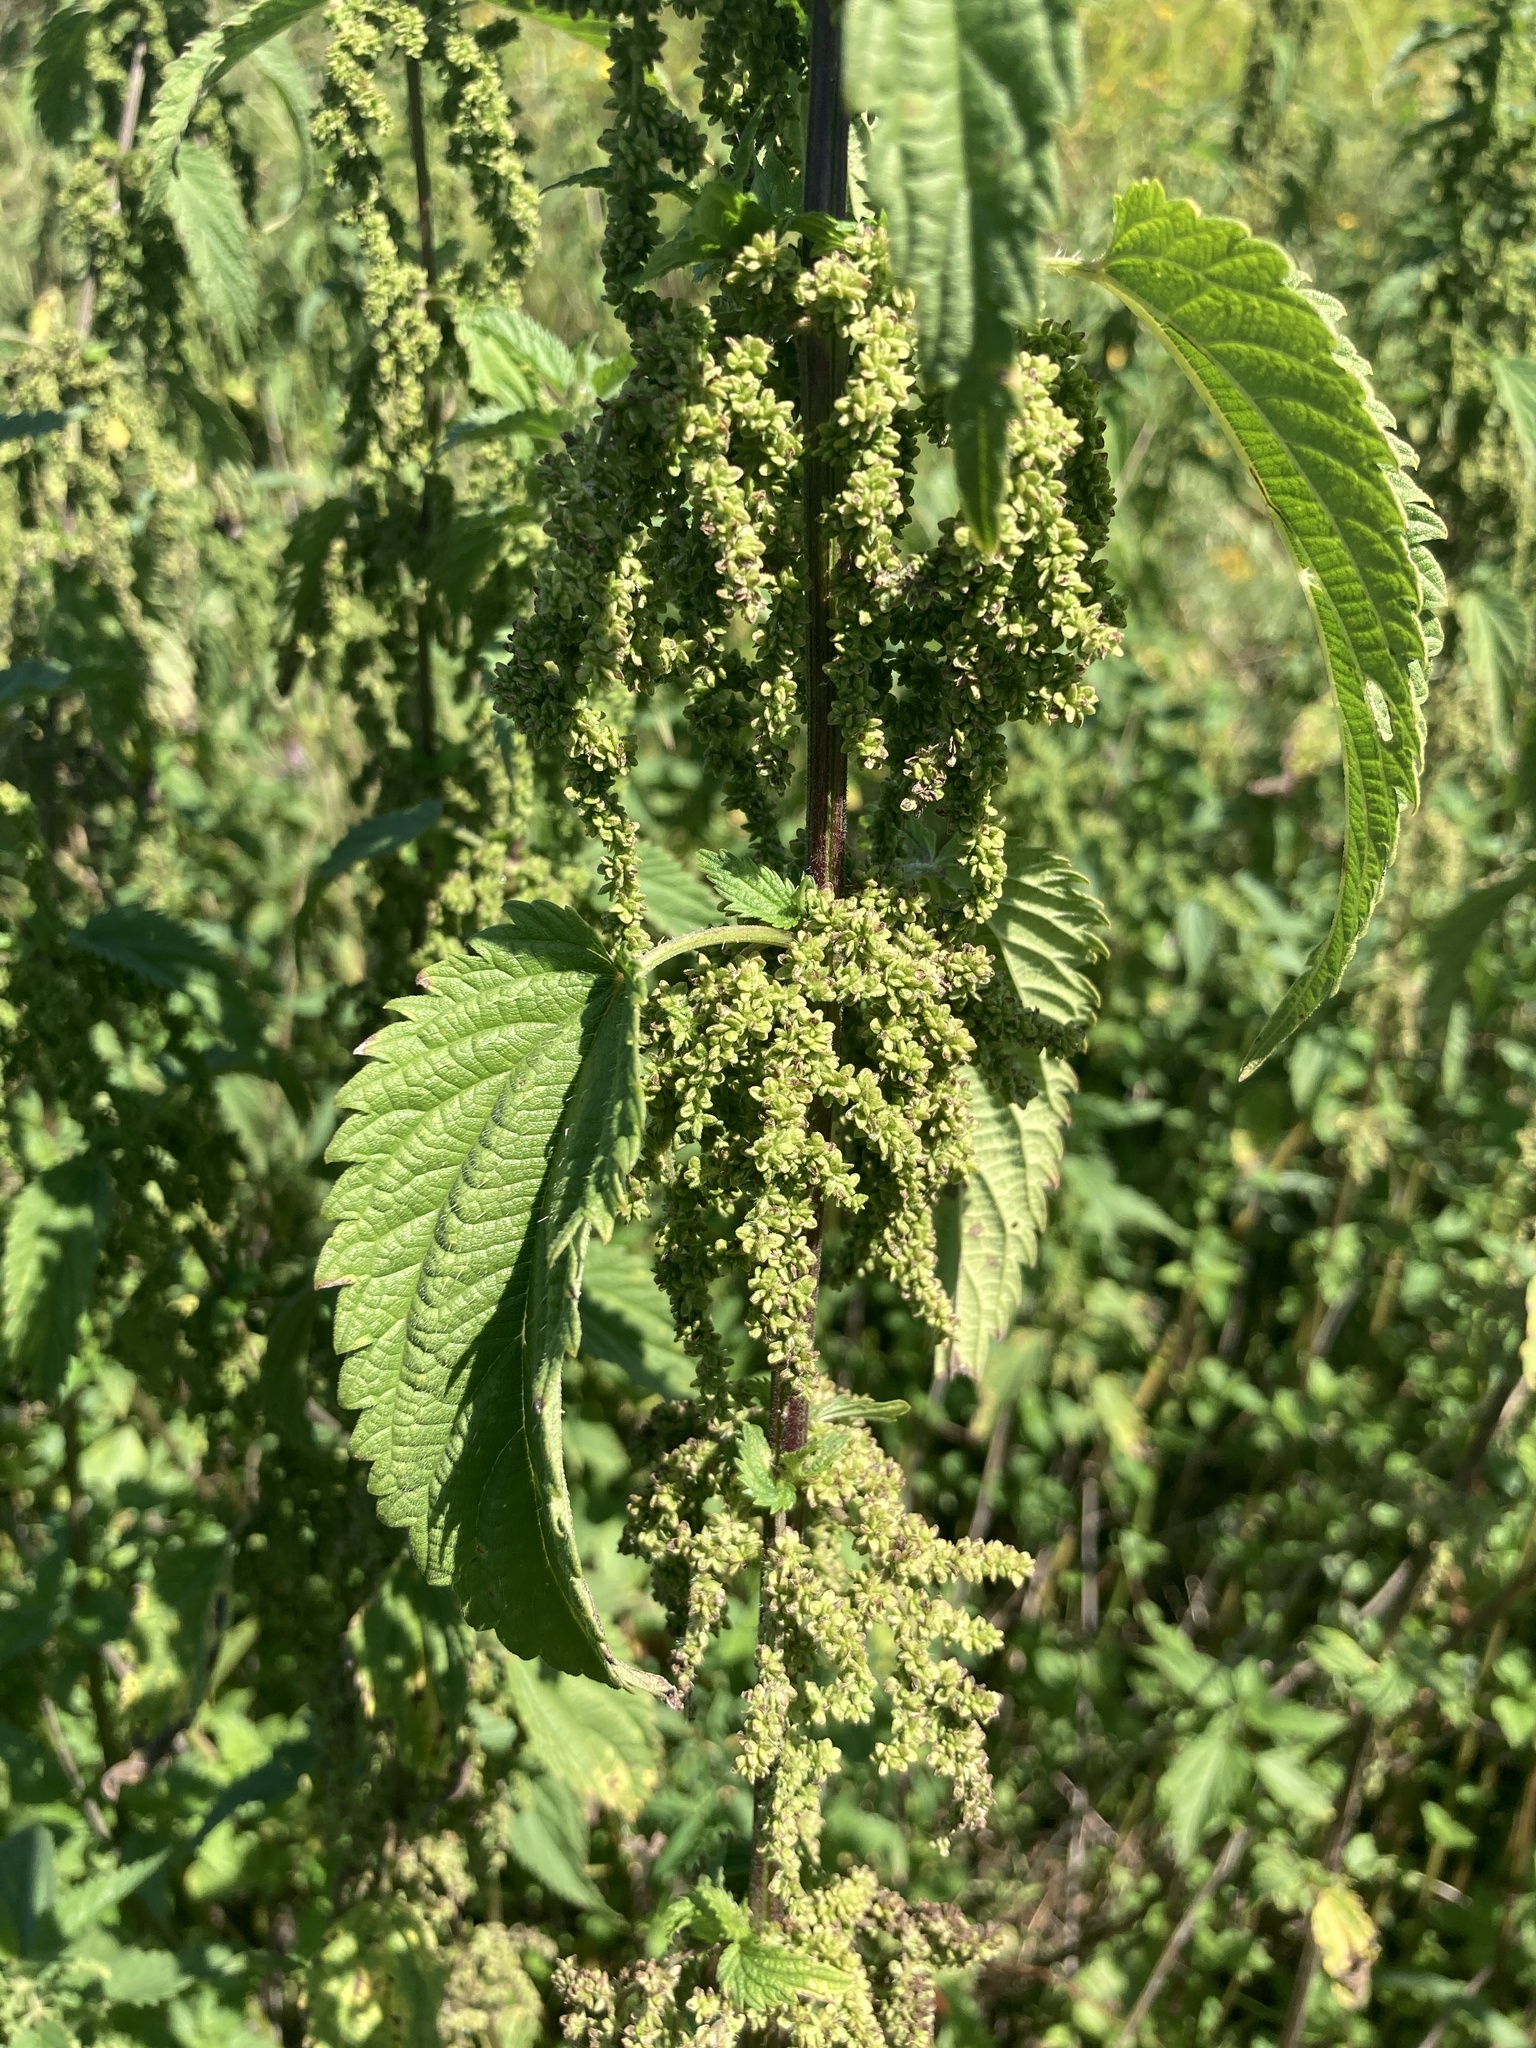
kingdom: Plantae
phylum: Tracheophyta
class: Magnoliopsida
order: Rosales
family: Urticaceae
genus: Urtica
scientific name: Urtica dioica
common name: Common nettle
